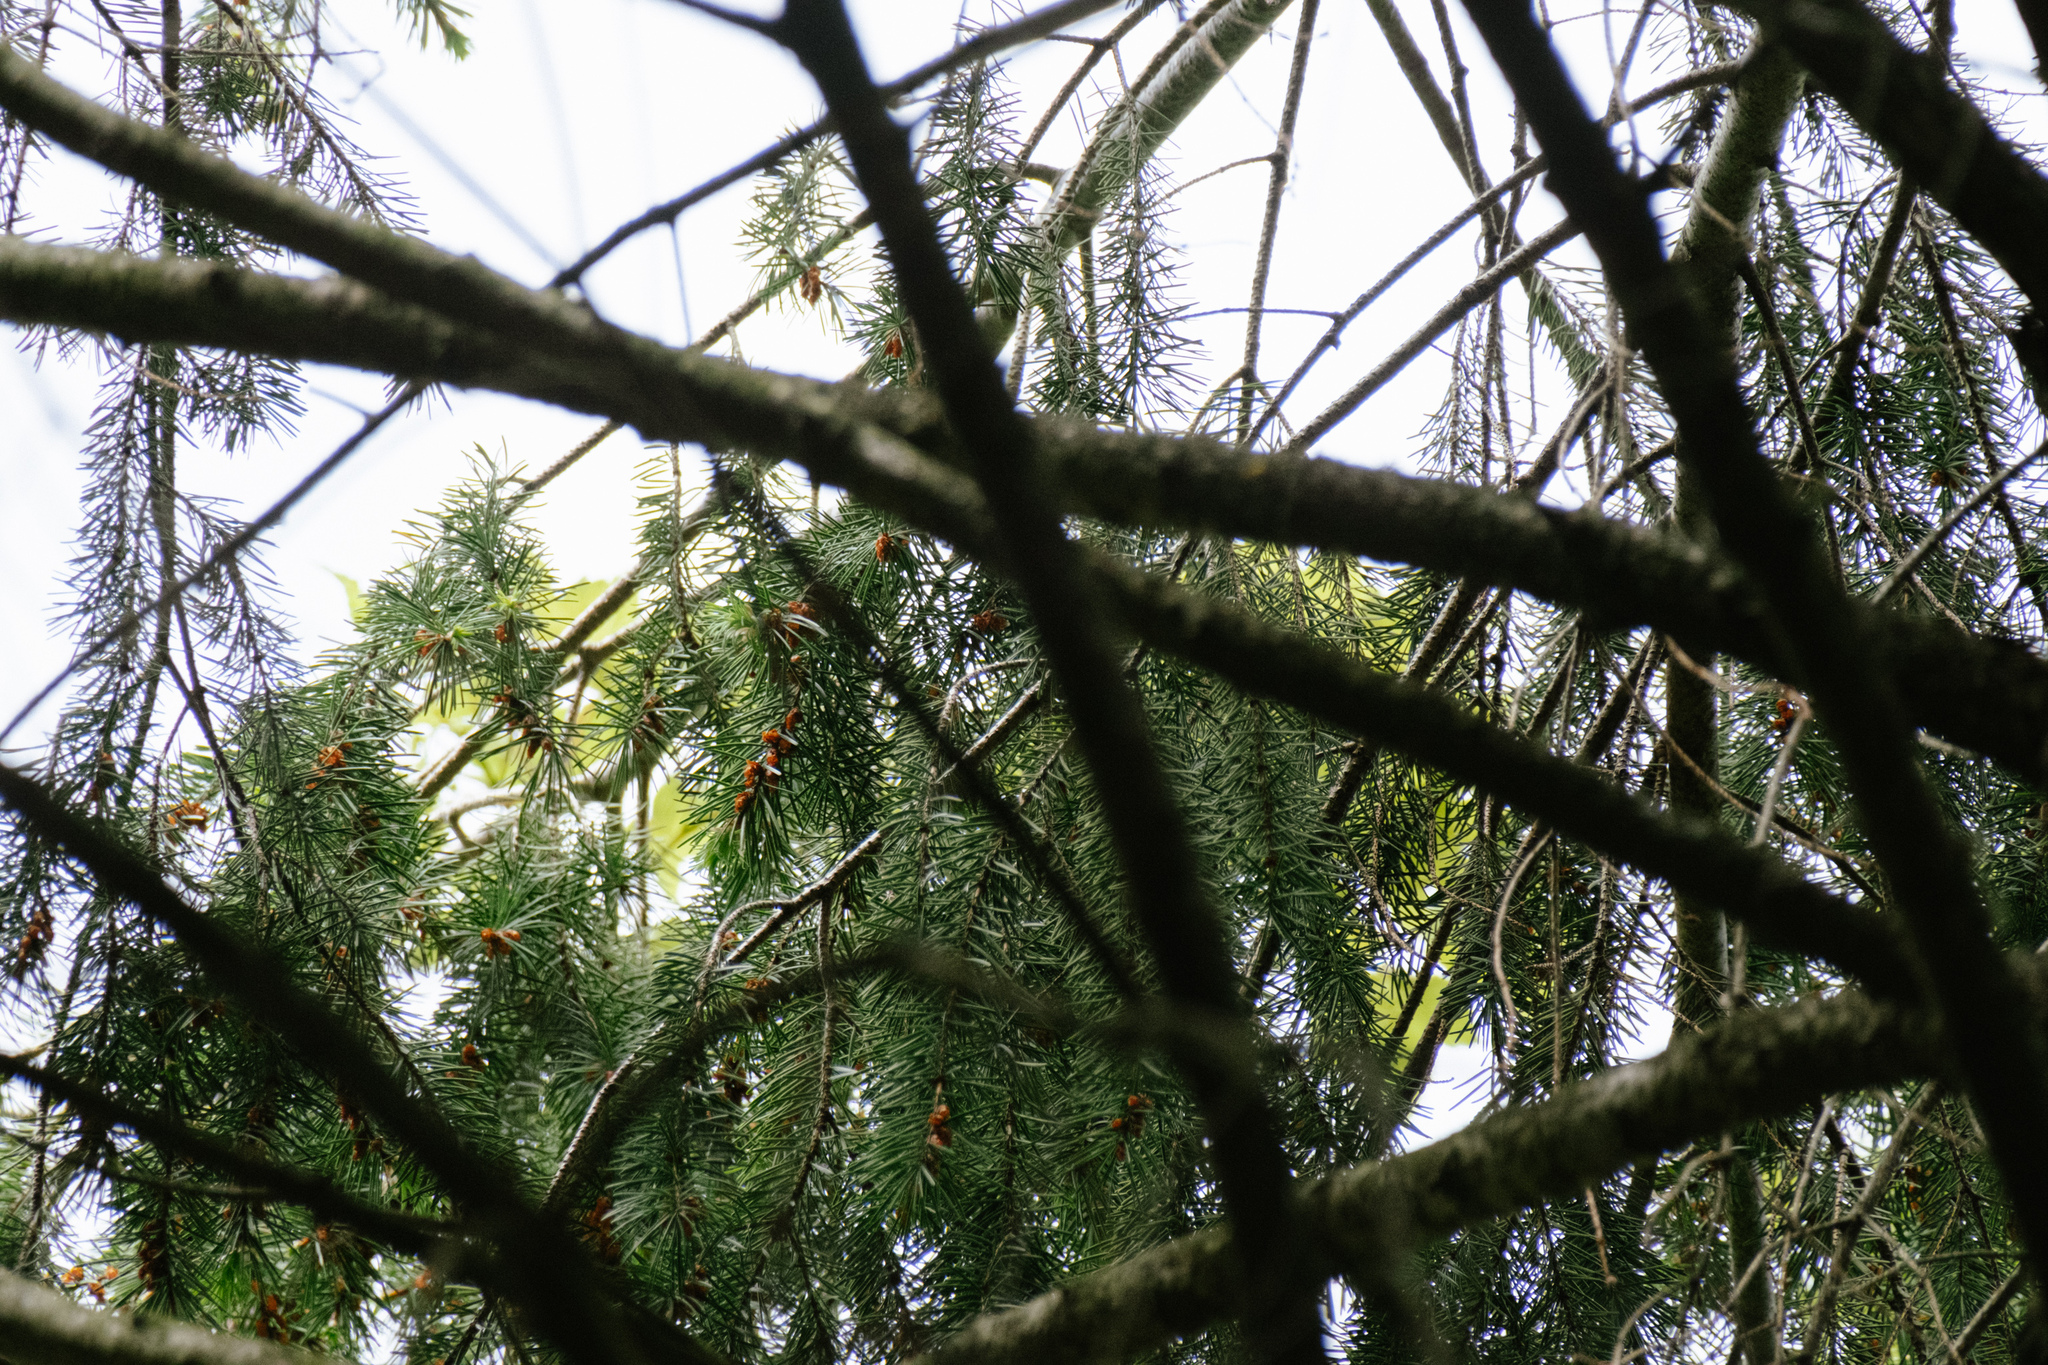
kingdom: Plantae
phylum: Tracheophyta
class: Pinopsida
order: Pinales
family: Pinaceae
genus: Pseudotsuga
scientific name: Pseudotsuga menziesii
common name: Douglas fir
